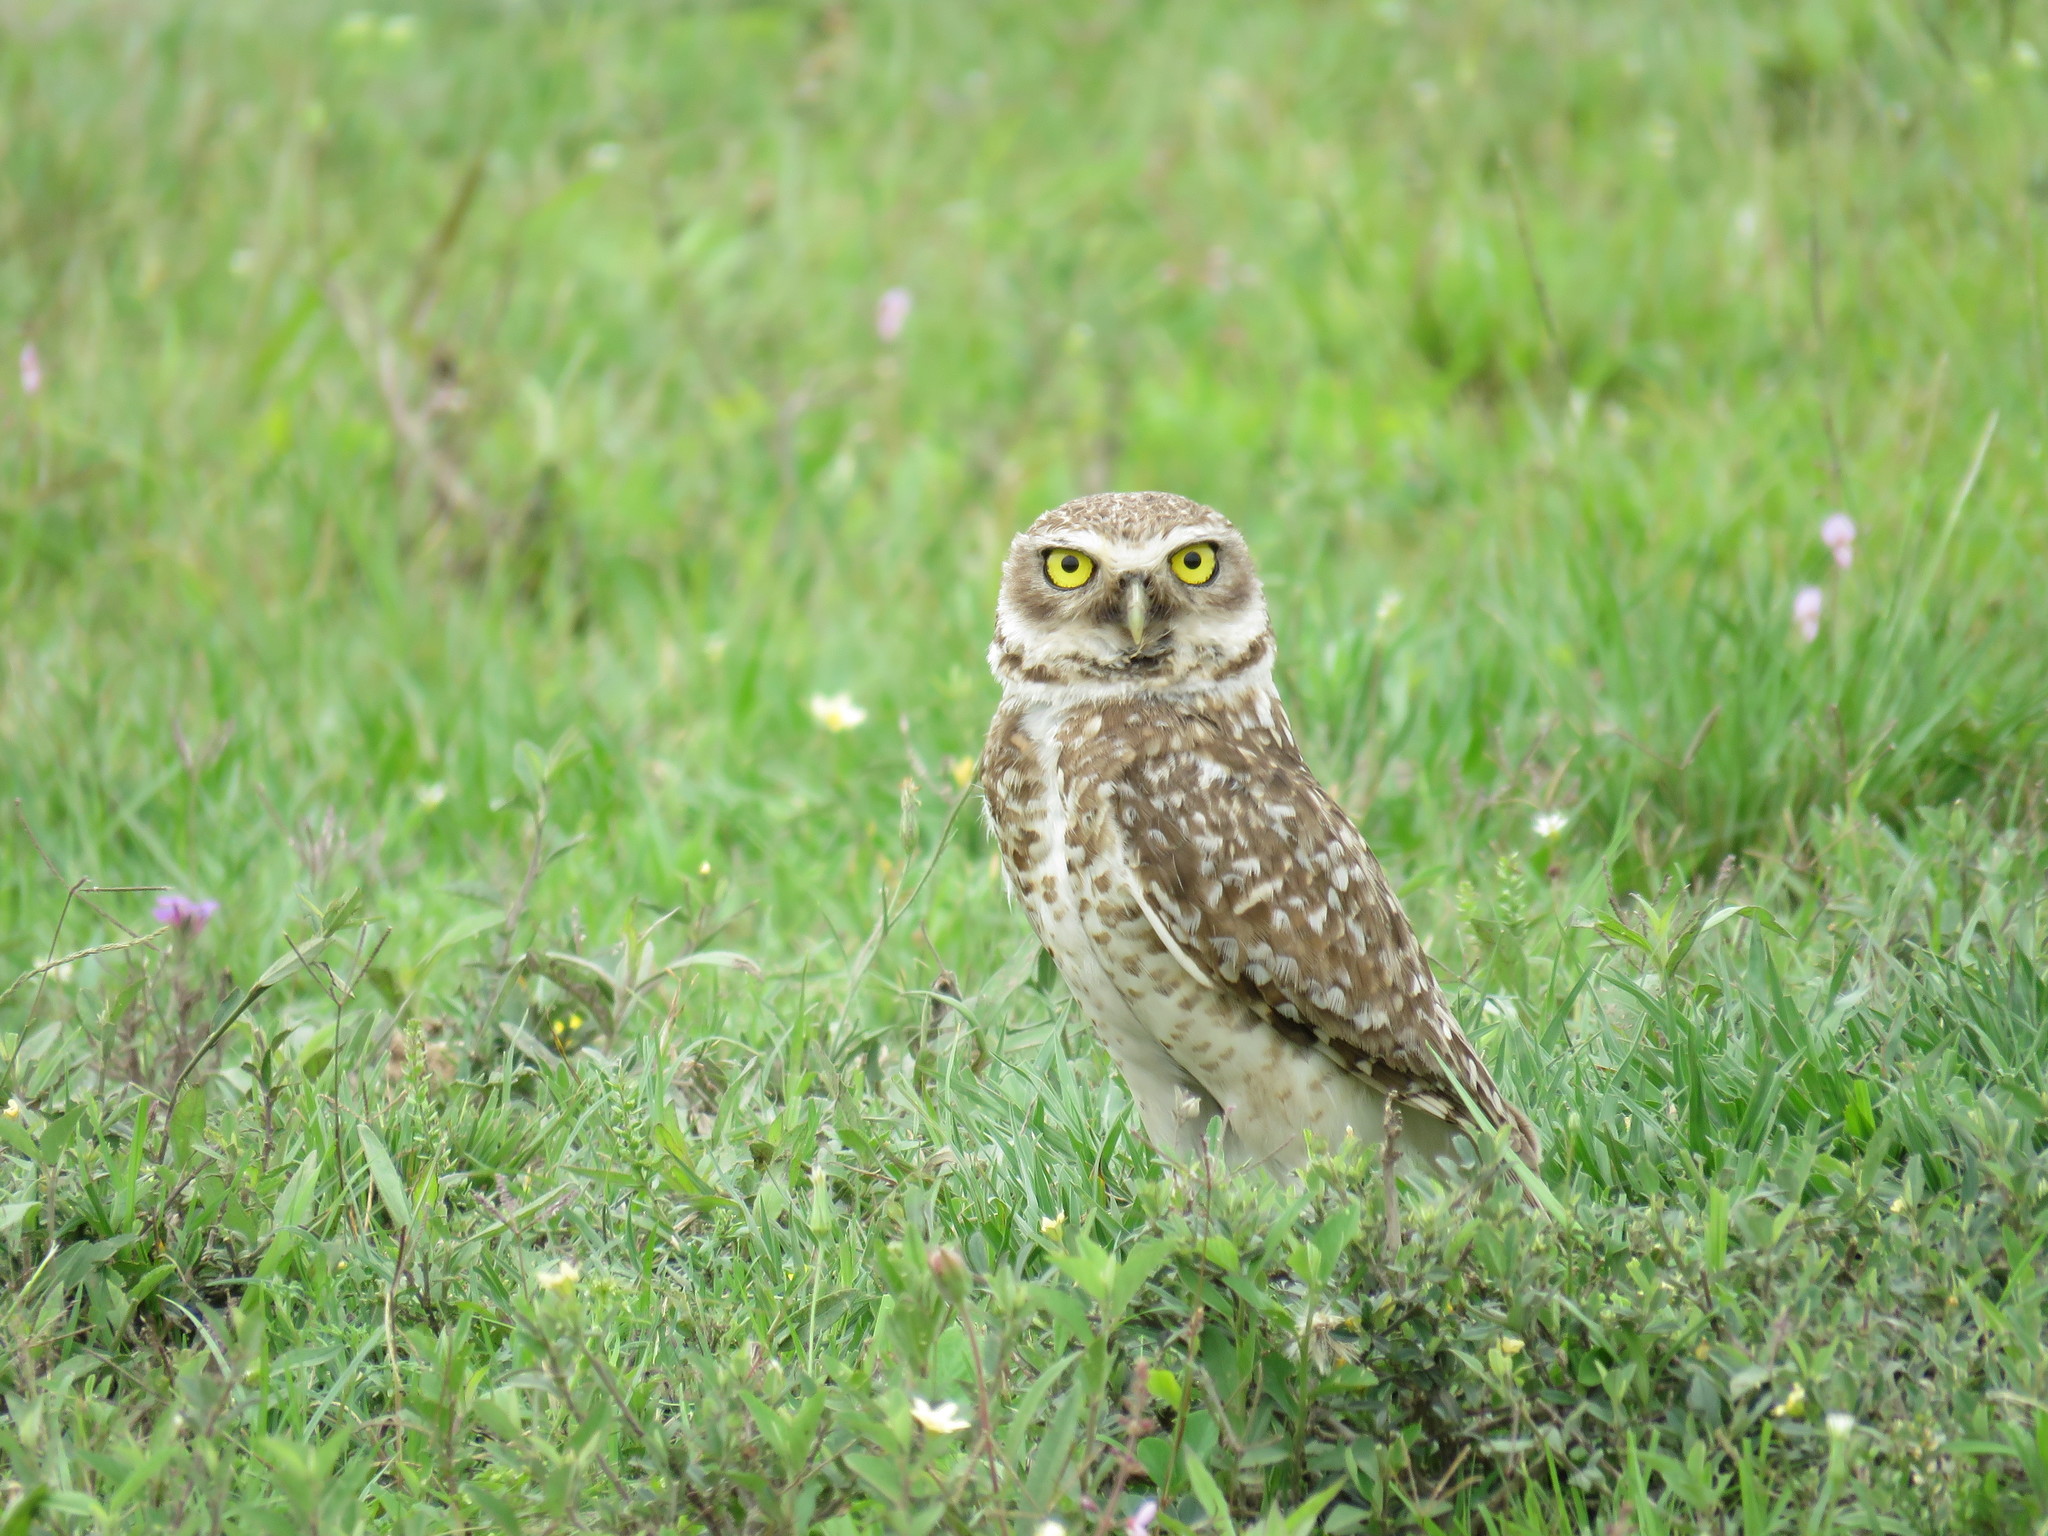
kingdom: Animalia
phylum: Chordata
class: Aves
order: Strigiformes
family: Strigidae
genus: Athene
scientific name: Athene cunicularia
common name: Burrowing owl
